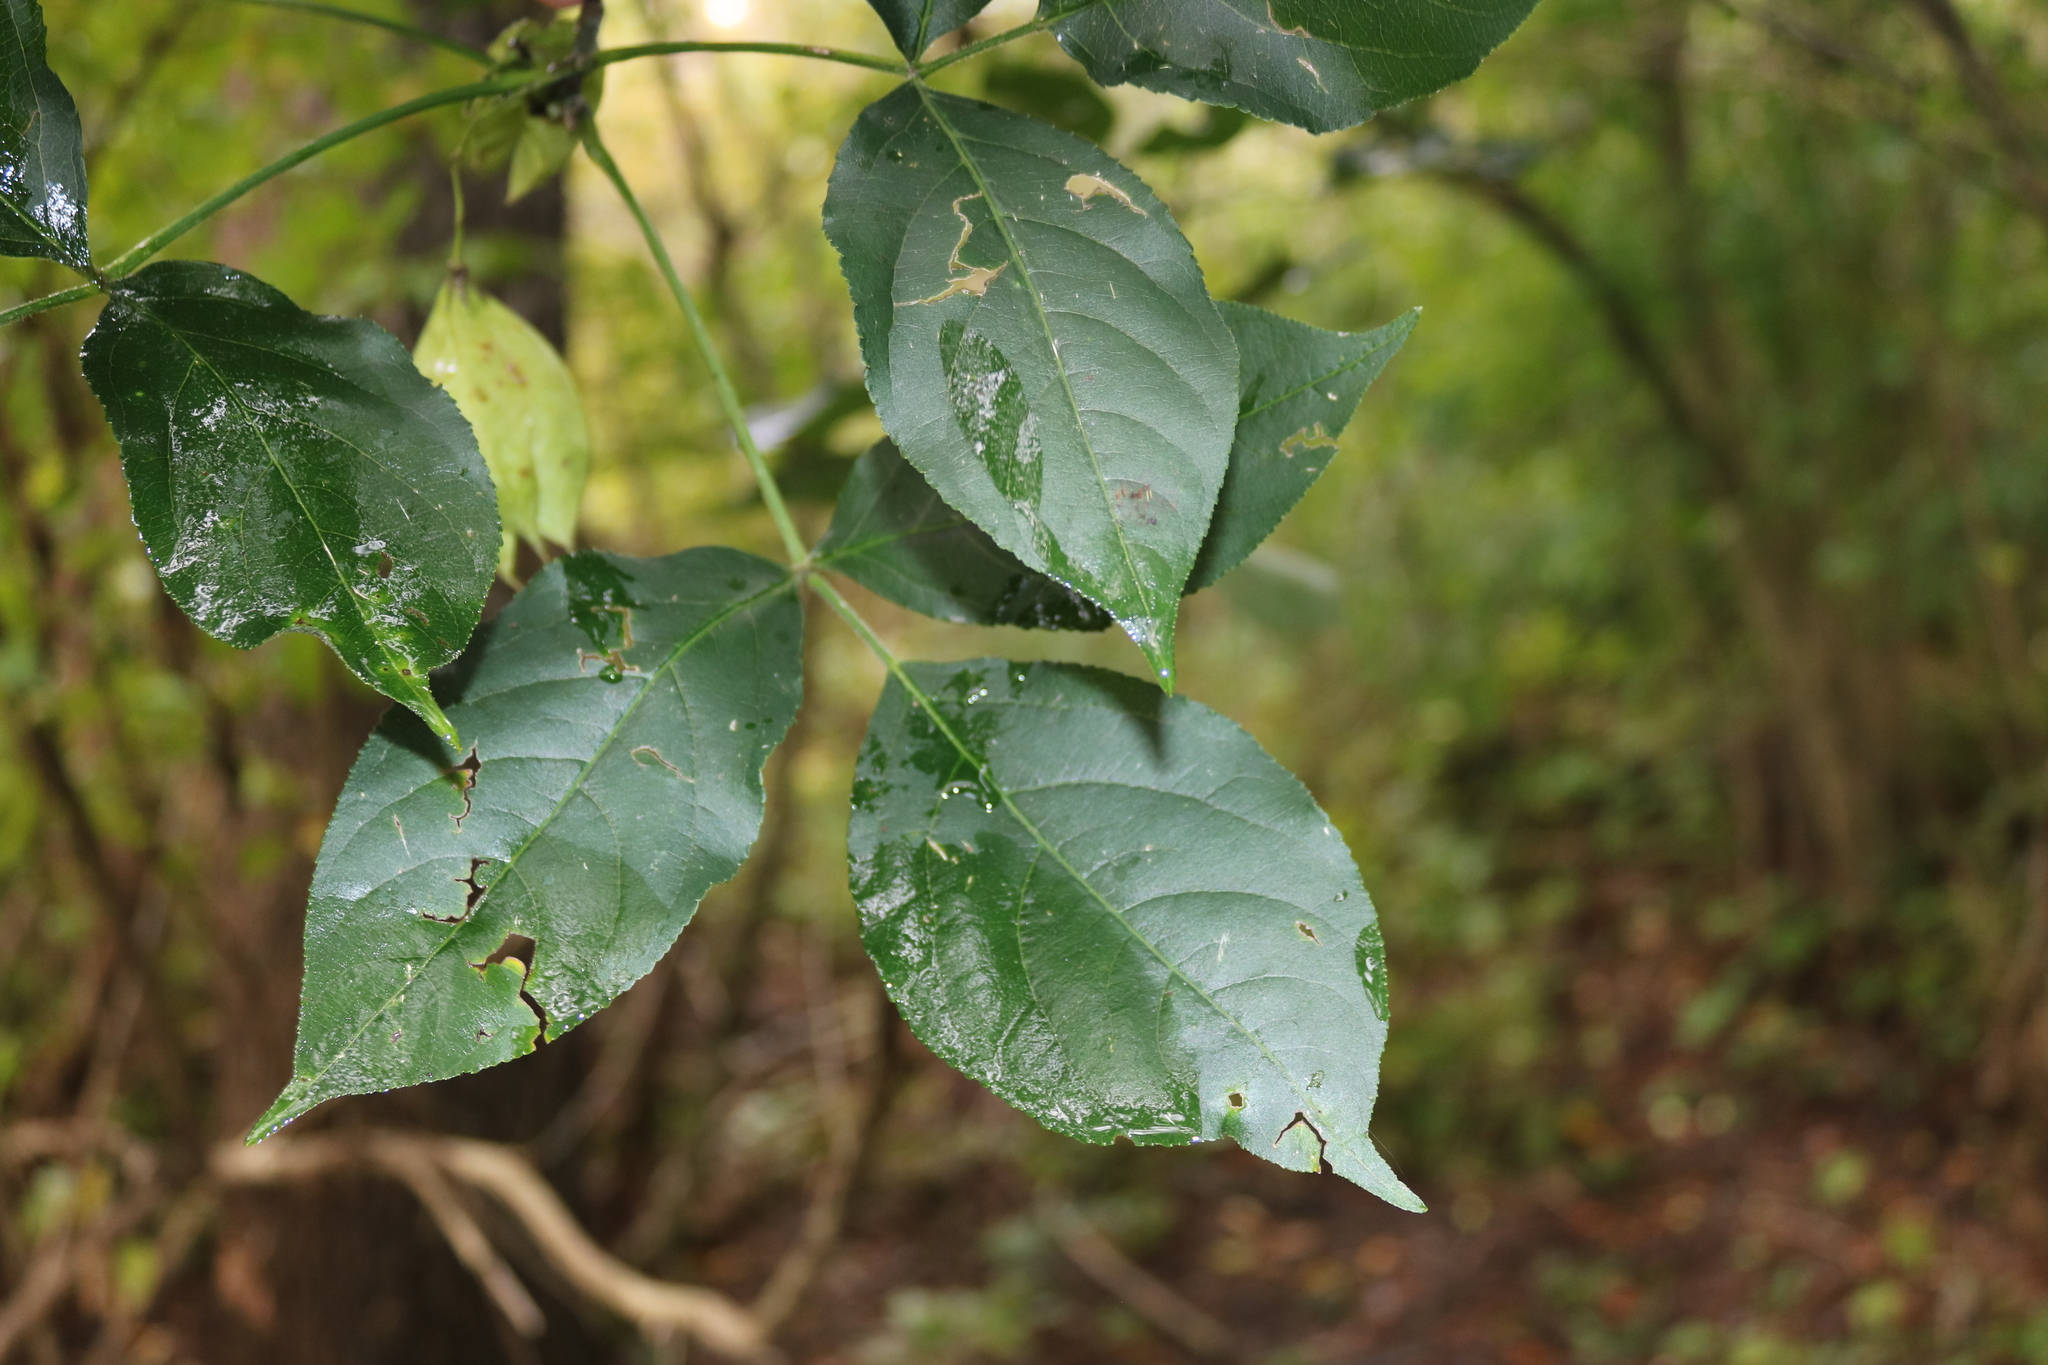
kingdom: Plantae
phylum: Tracheophyta
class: Magnoliopsida
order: Crossosomatales
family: Staphyleaceae
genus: Staphylea
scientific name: Staphylea trifolia
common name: American bladdernut
